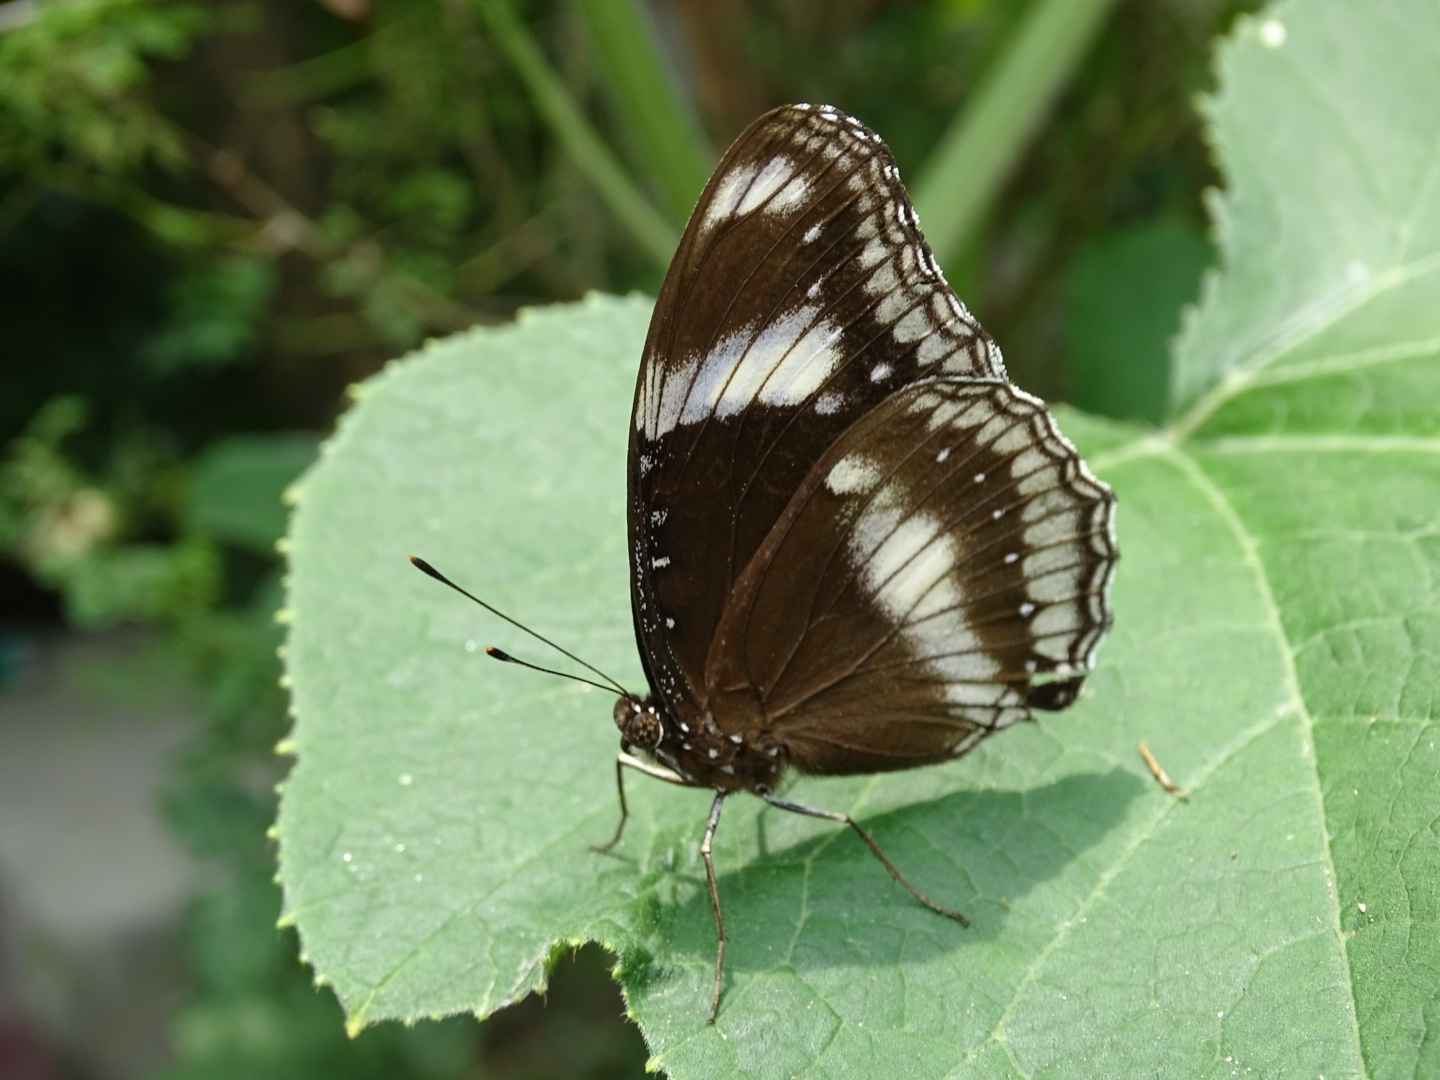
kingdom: Animalia
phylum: Arthropoda
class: Insecta
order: Lepidoptera
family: Nymphalidae
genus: Hypolimnas
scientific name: Hypolimnas bolina
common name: Great eggfly
